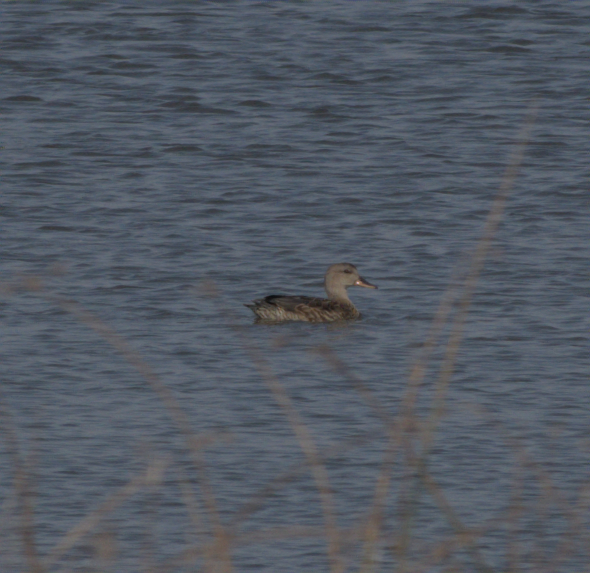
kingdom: Animalia
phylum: Chordata
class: Aves
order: Anseriformes
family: Anatidae
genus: Mareca
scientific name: Mareca strepera
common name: Gadwall
